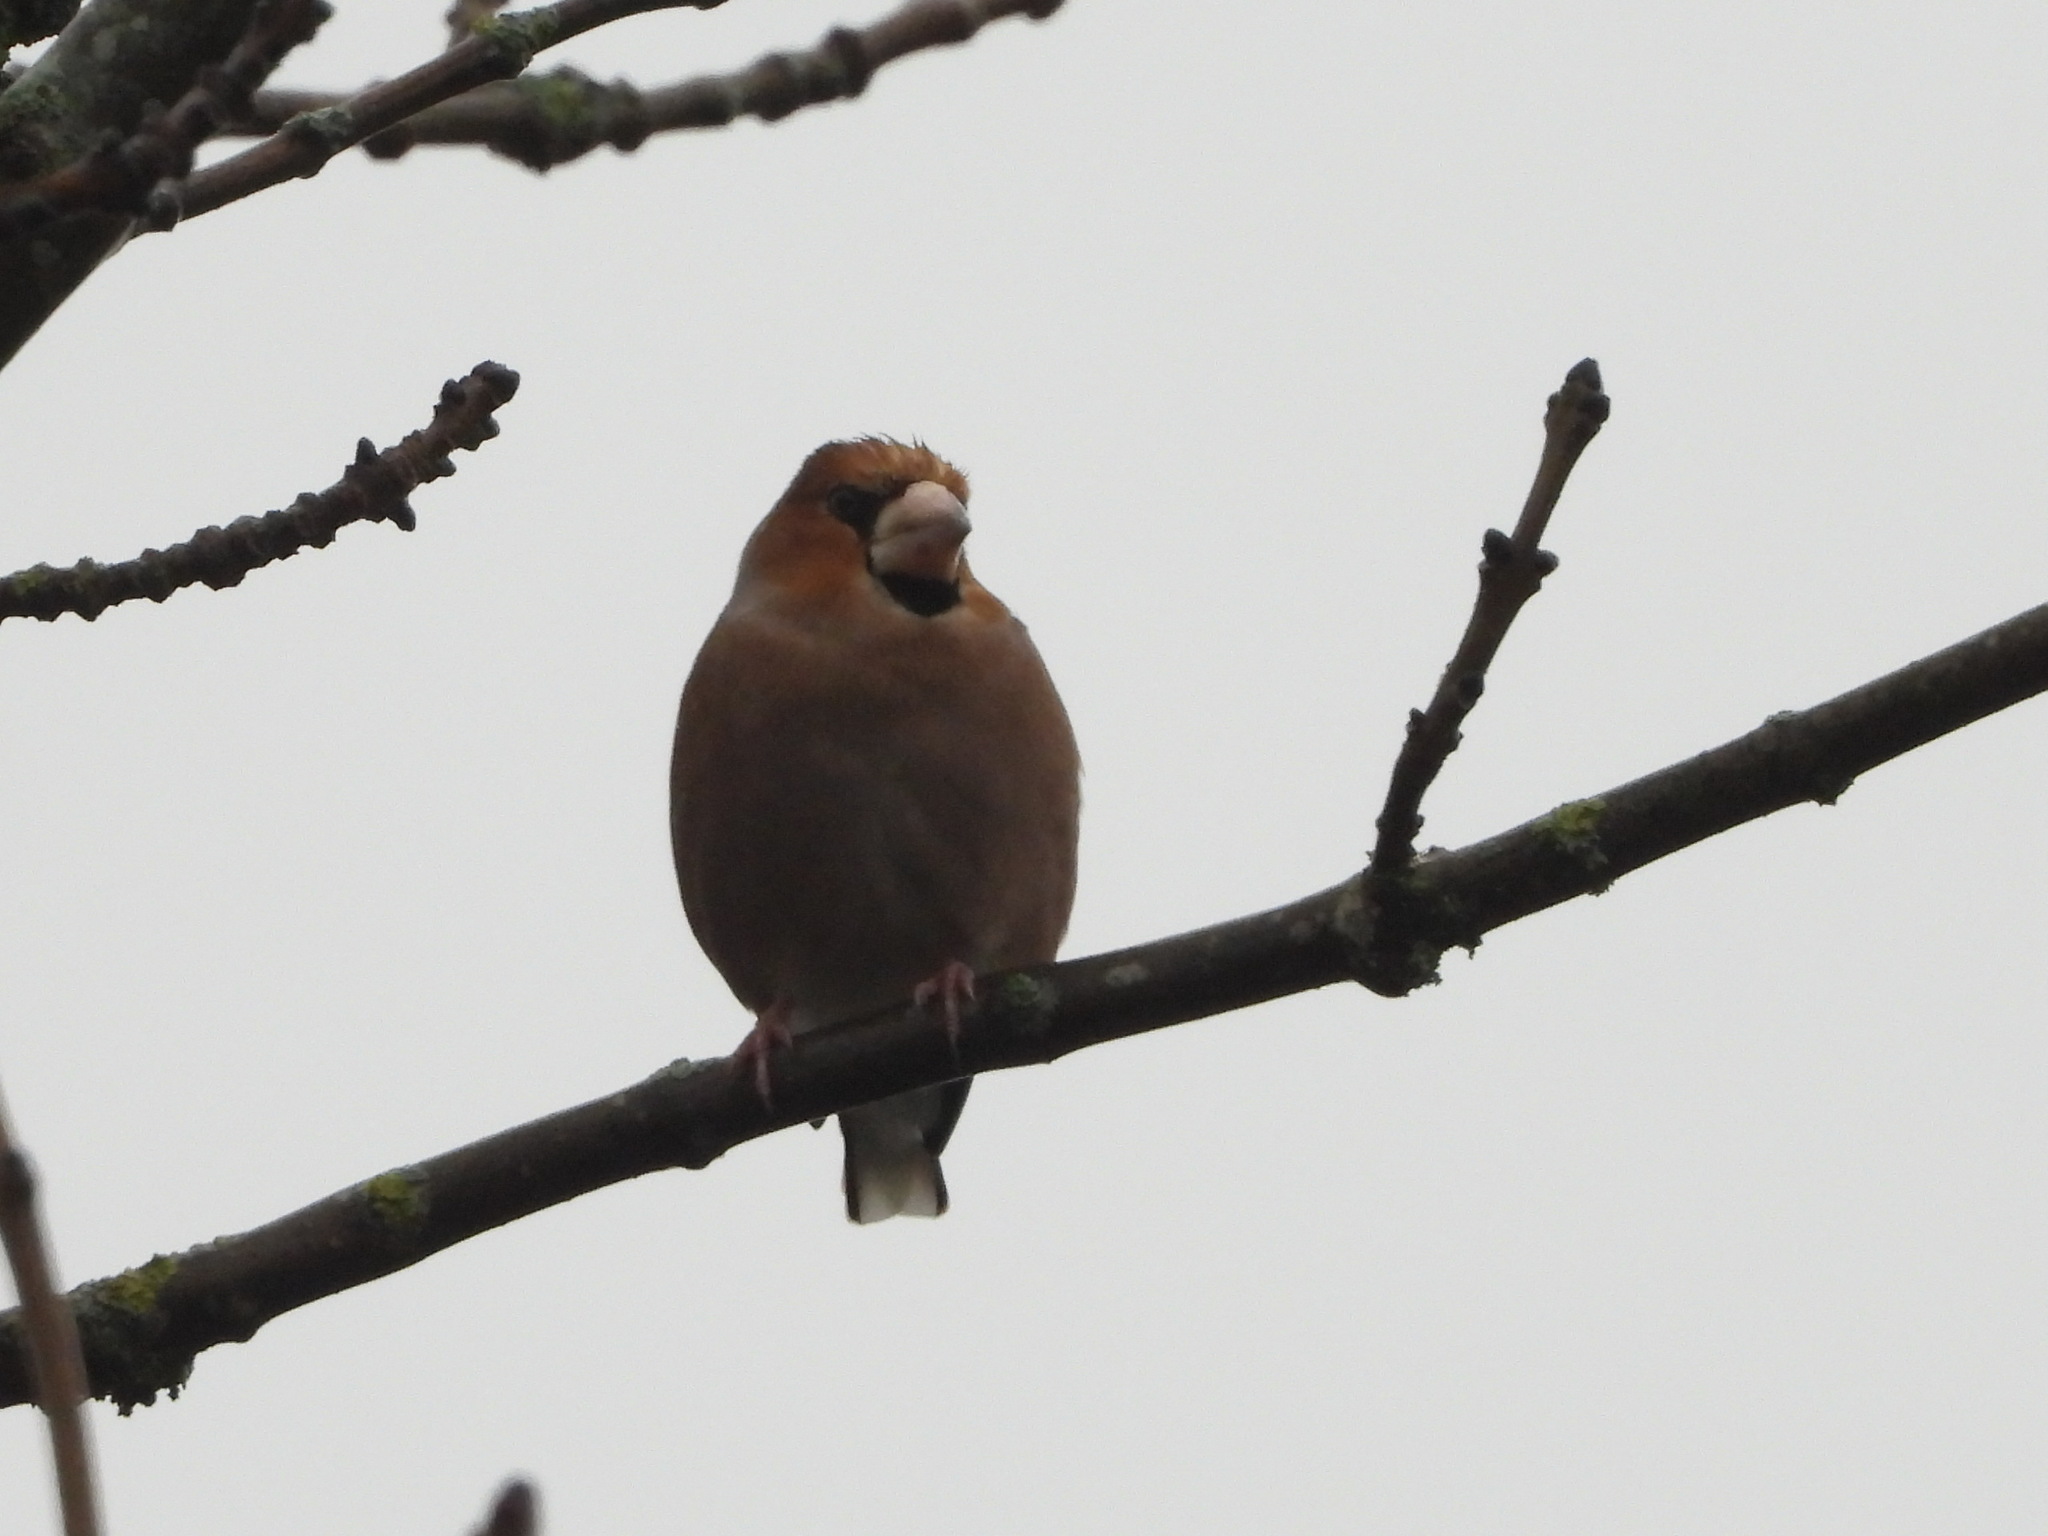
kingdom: Animalia
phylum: Chordata
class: Aves
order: Passeriformes
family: Fringillidae
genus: Coccothraustes
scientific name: Coccothraustes coccothraustes
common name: Hawfinch
